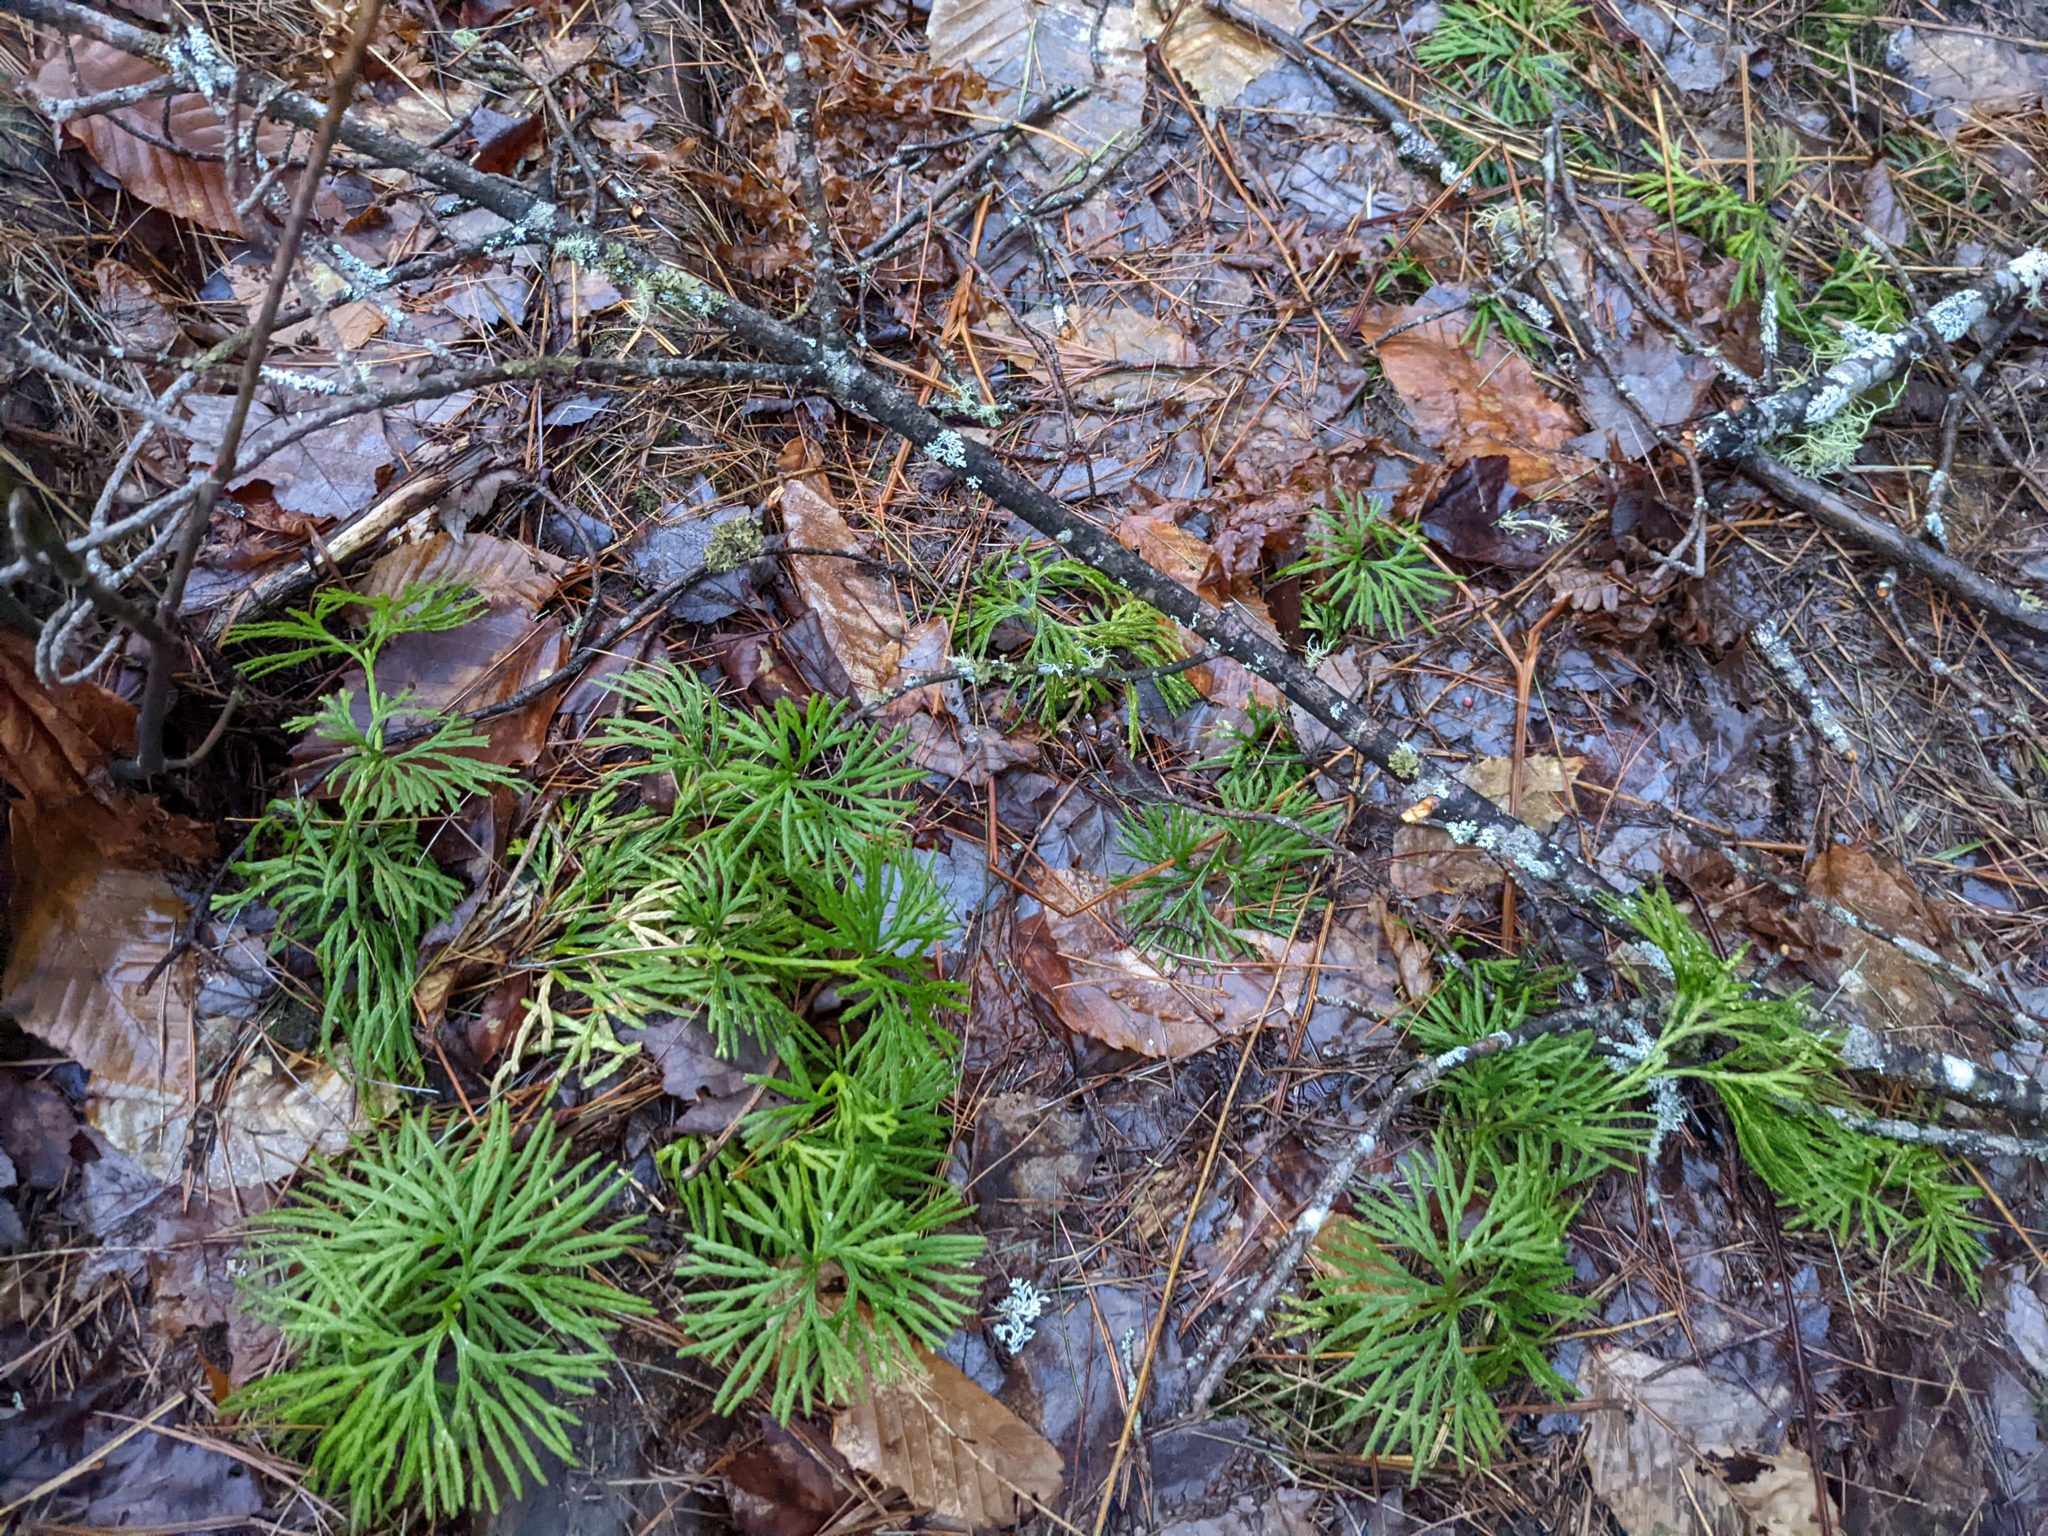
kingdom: Plantae
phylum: Tracheophyta
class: Lycopodiopsida
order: Lycopodiales
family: Lycopodiaceae
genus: Diphasiastrum
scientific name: Diphasiastrum digitatum
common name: Southern running-pine
